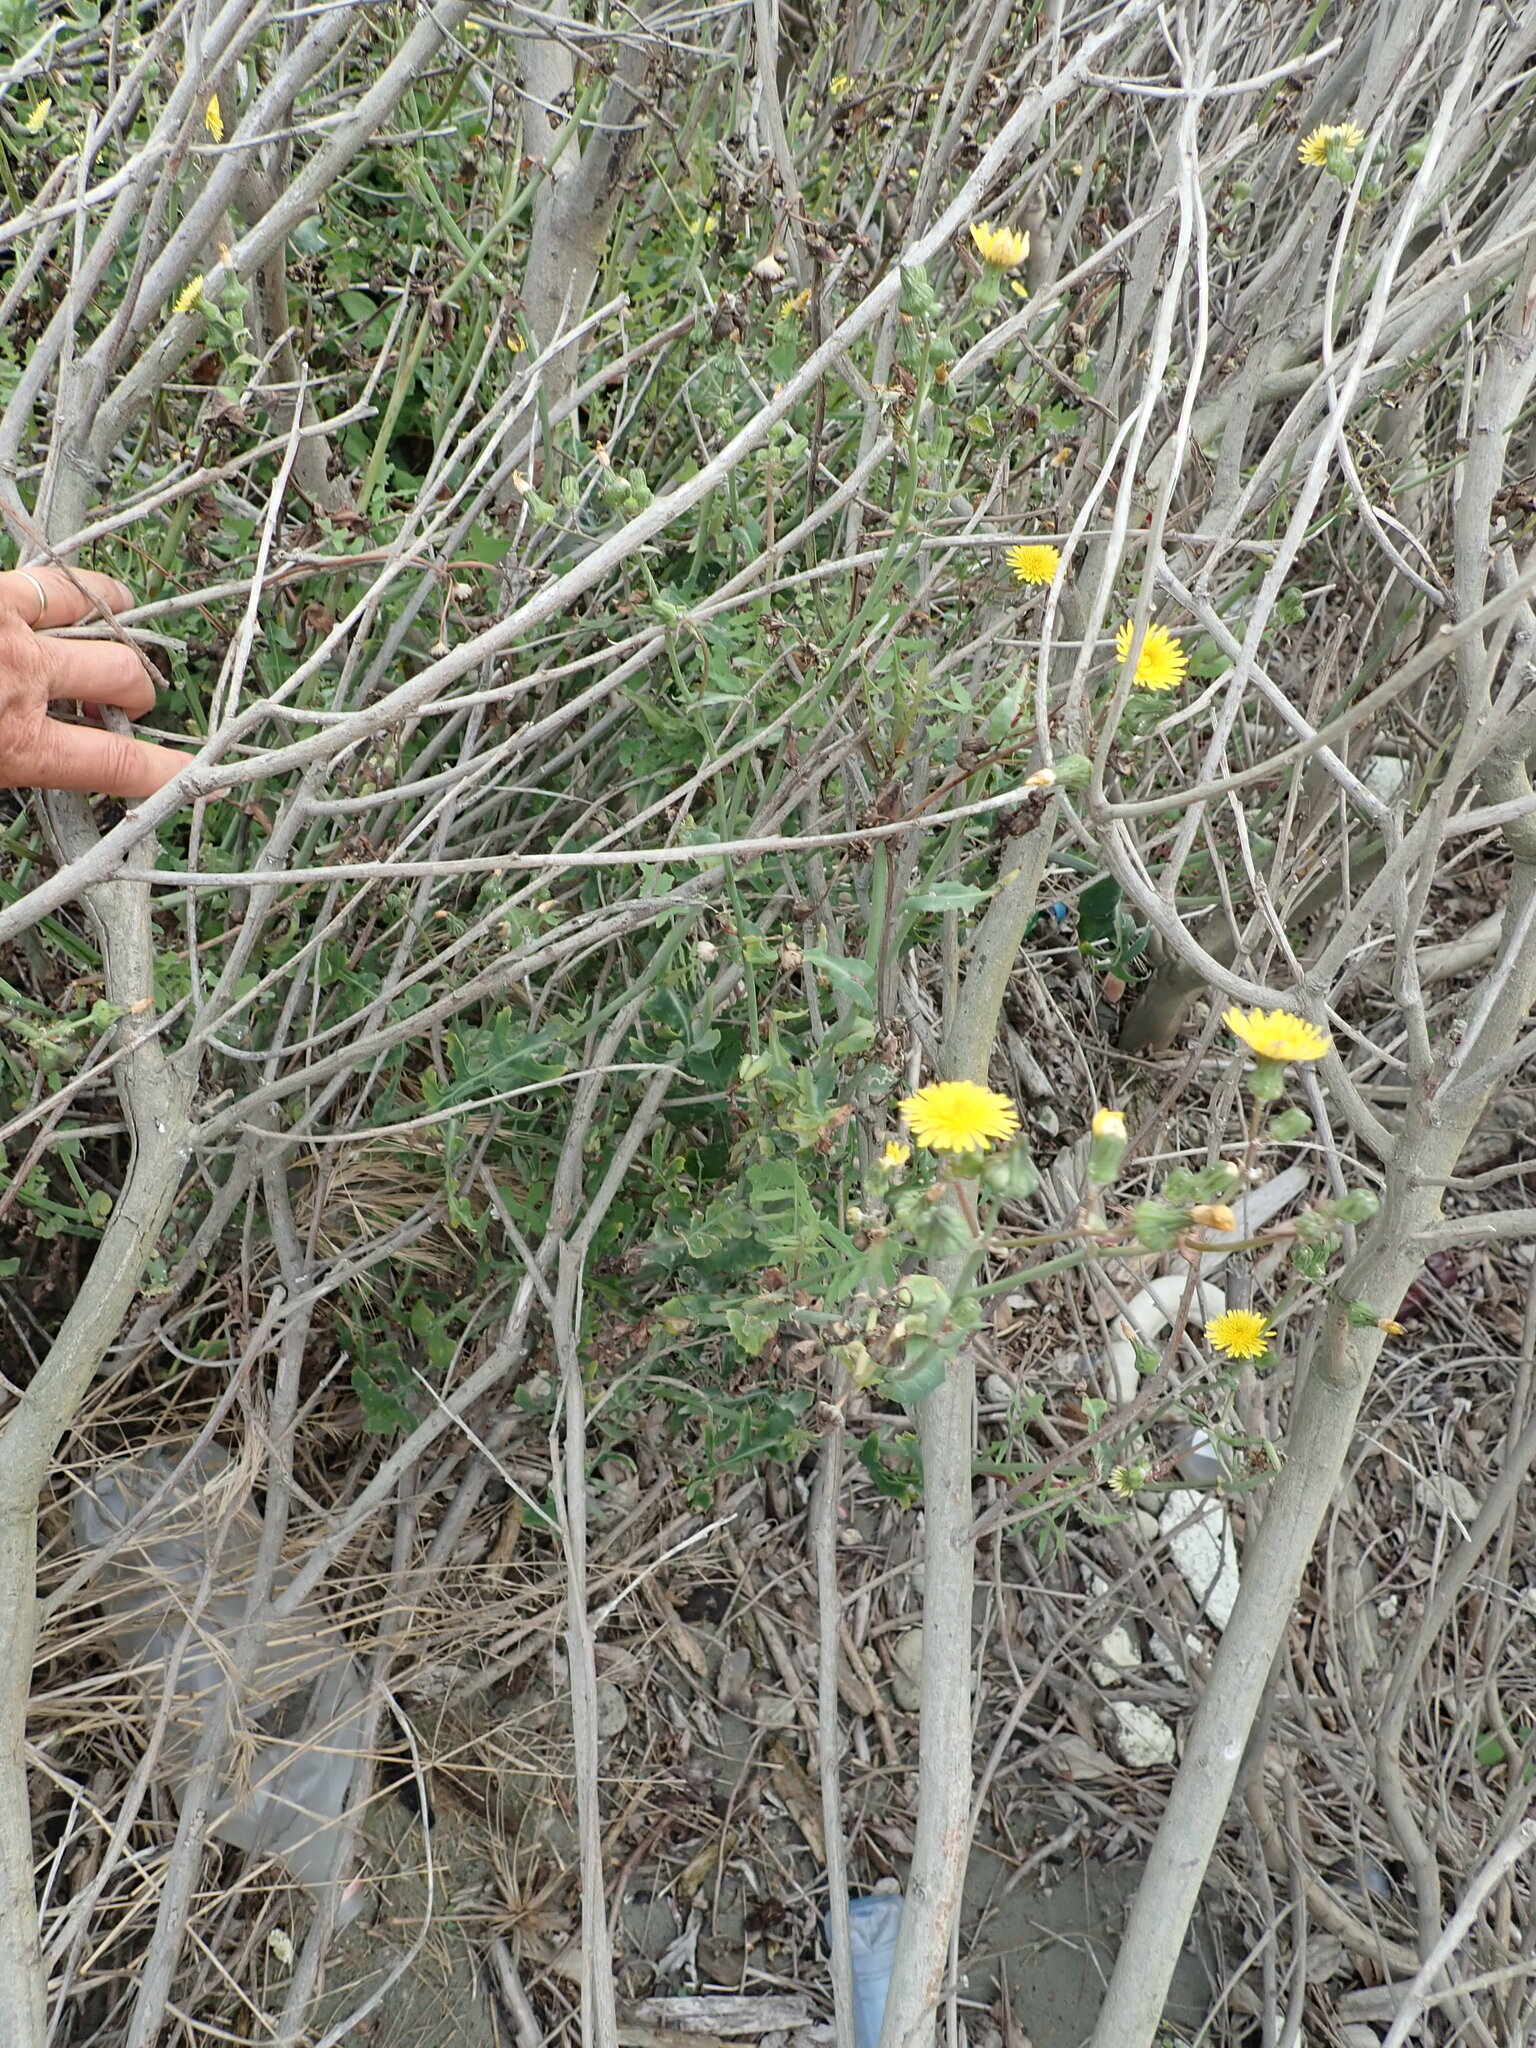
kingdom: Plantae
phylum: Tracheophyta
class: Magnoliopsida
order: Asterales
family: Asteraceae
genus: Sonchus
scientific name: Sonchus oleraceus
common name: Common sowthistle
